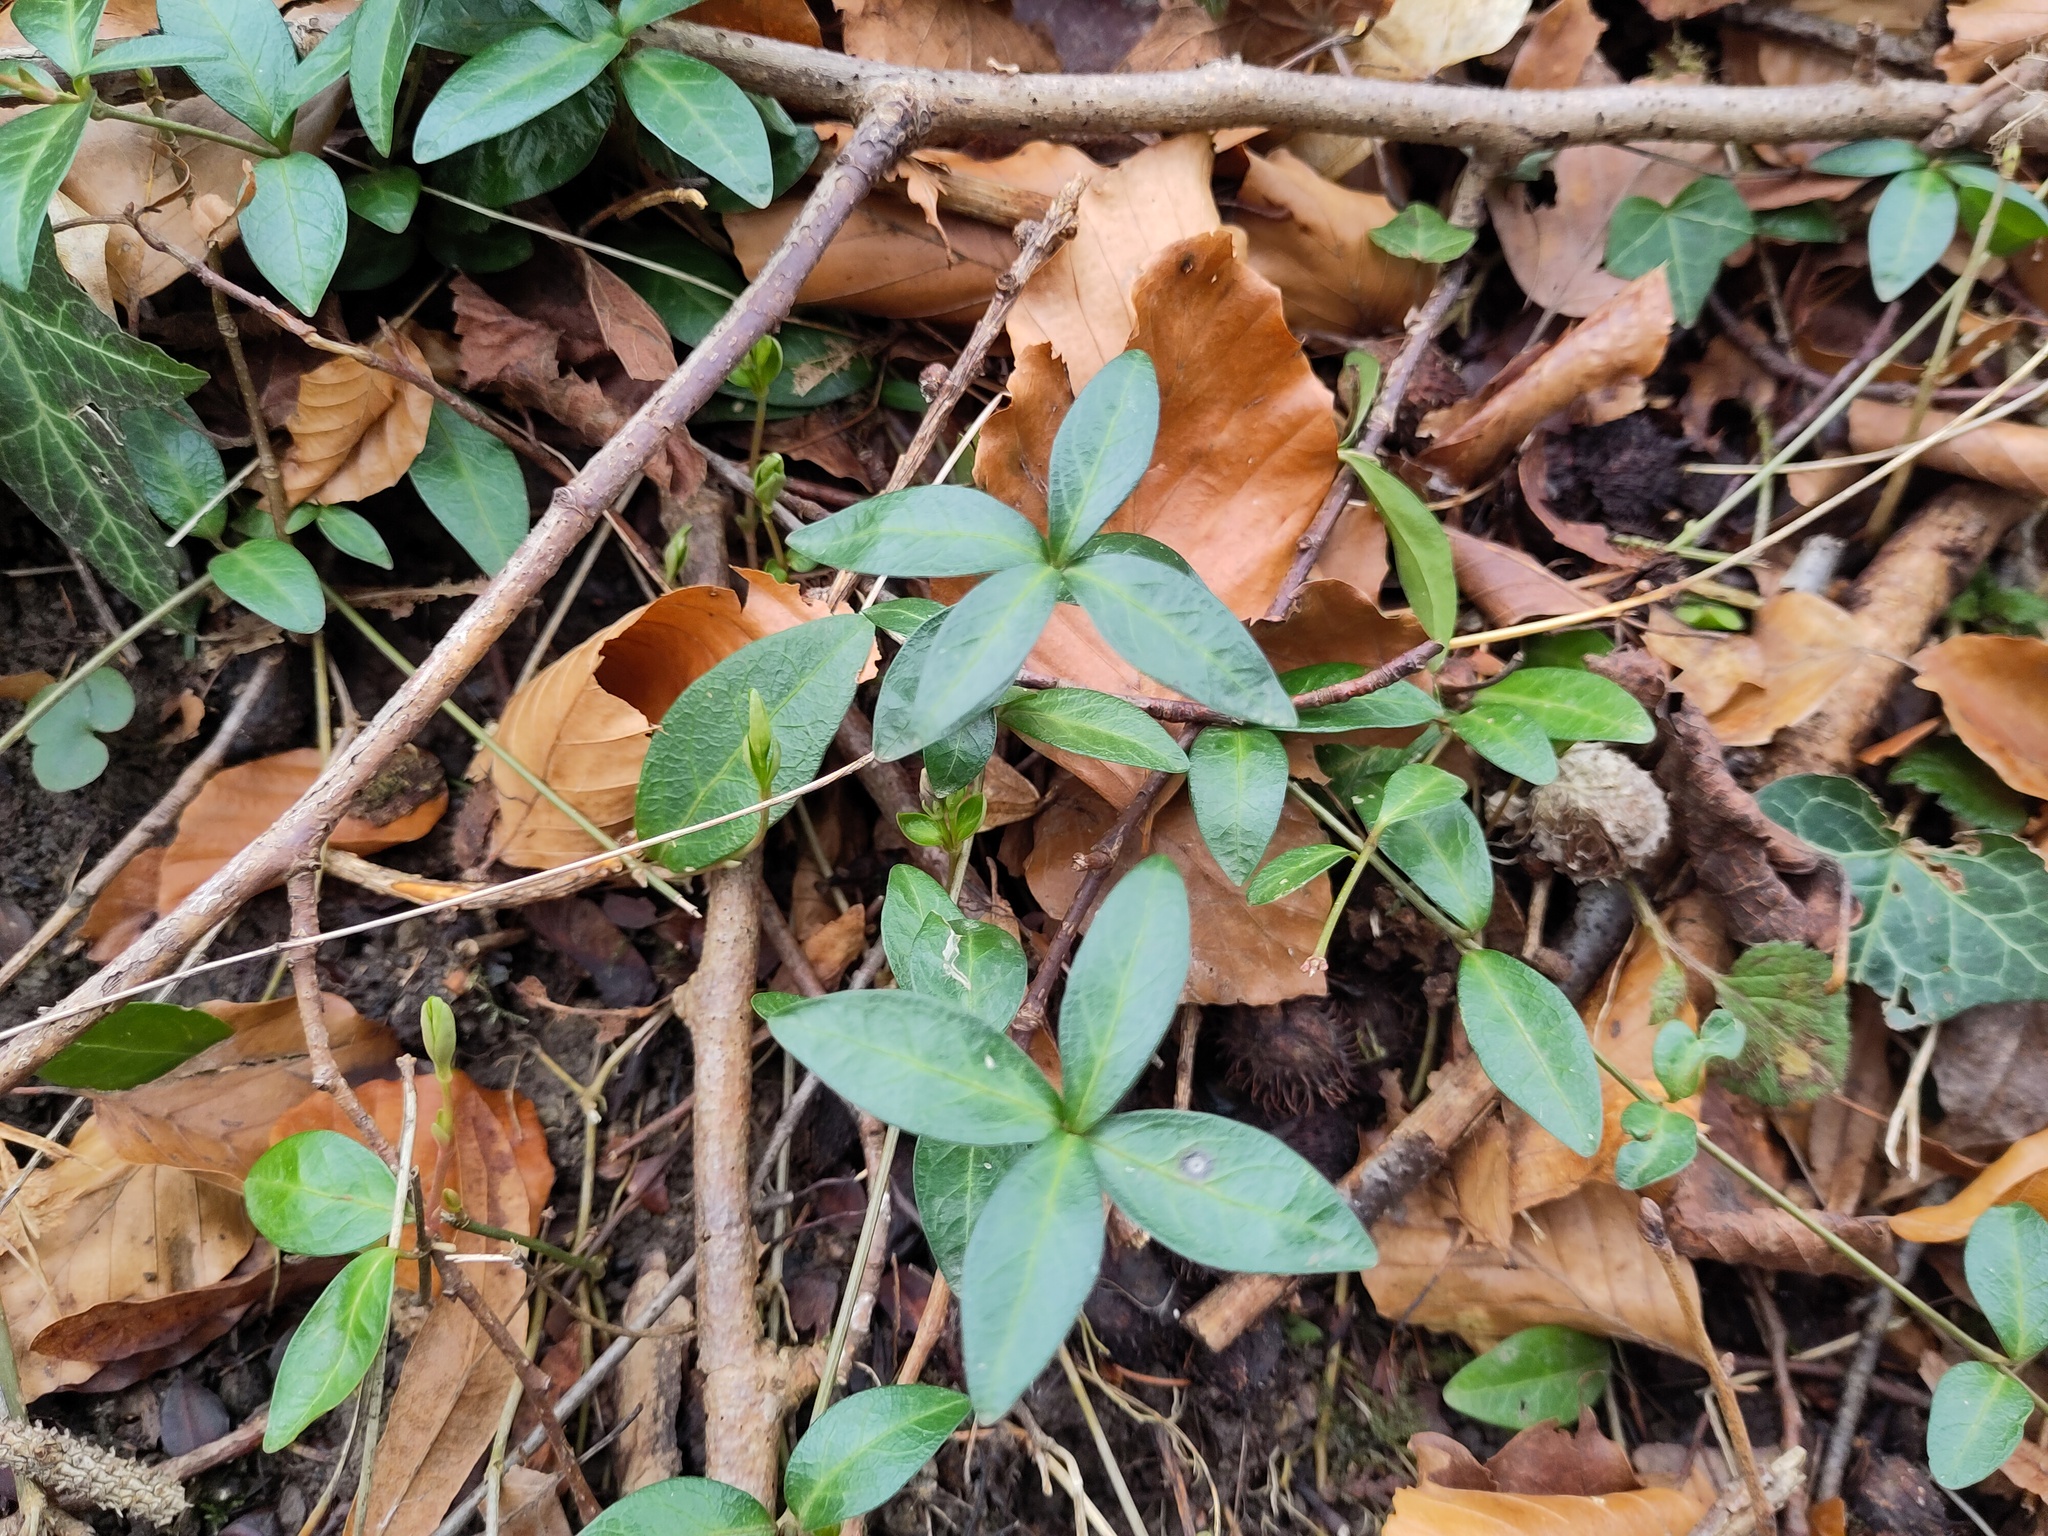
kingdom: Plantae
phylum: Tracheophyta
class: Magnoliopsida
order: Gentianales
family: Apocynaceae
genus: Vinca
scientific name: Vinca minor
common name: Lesser periwinkle
